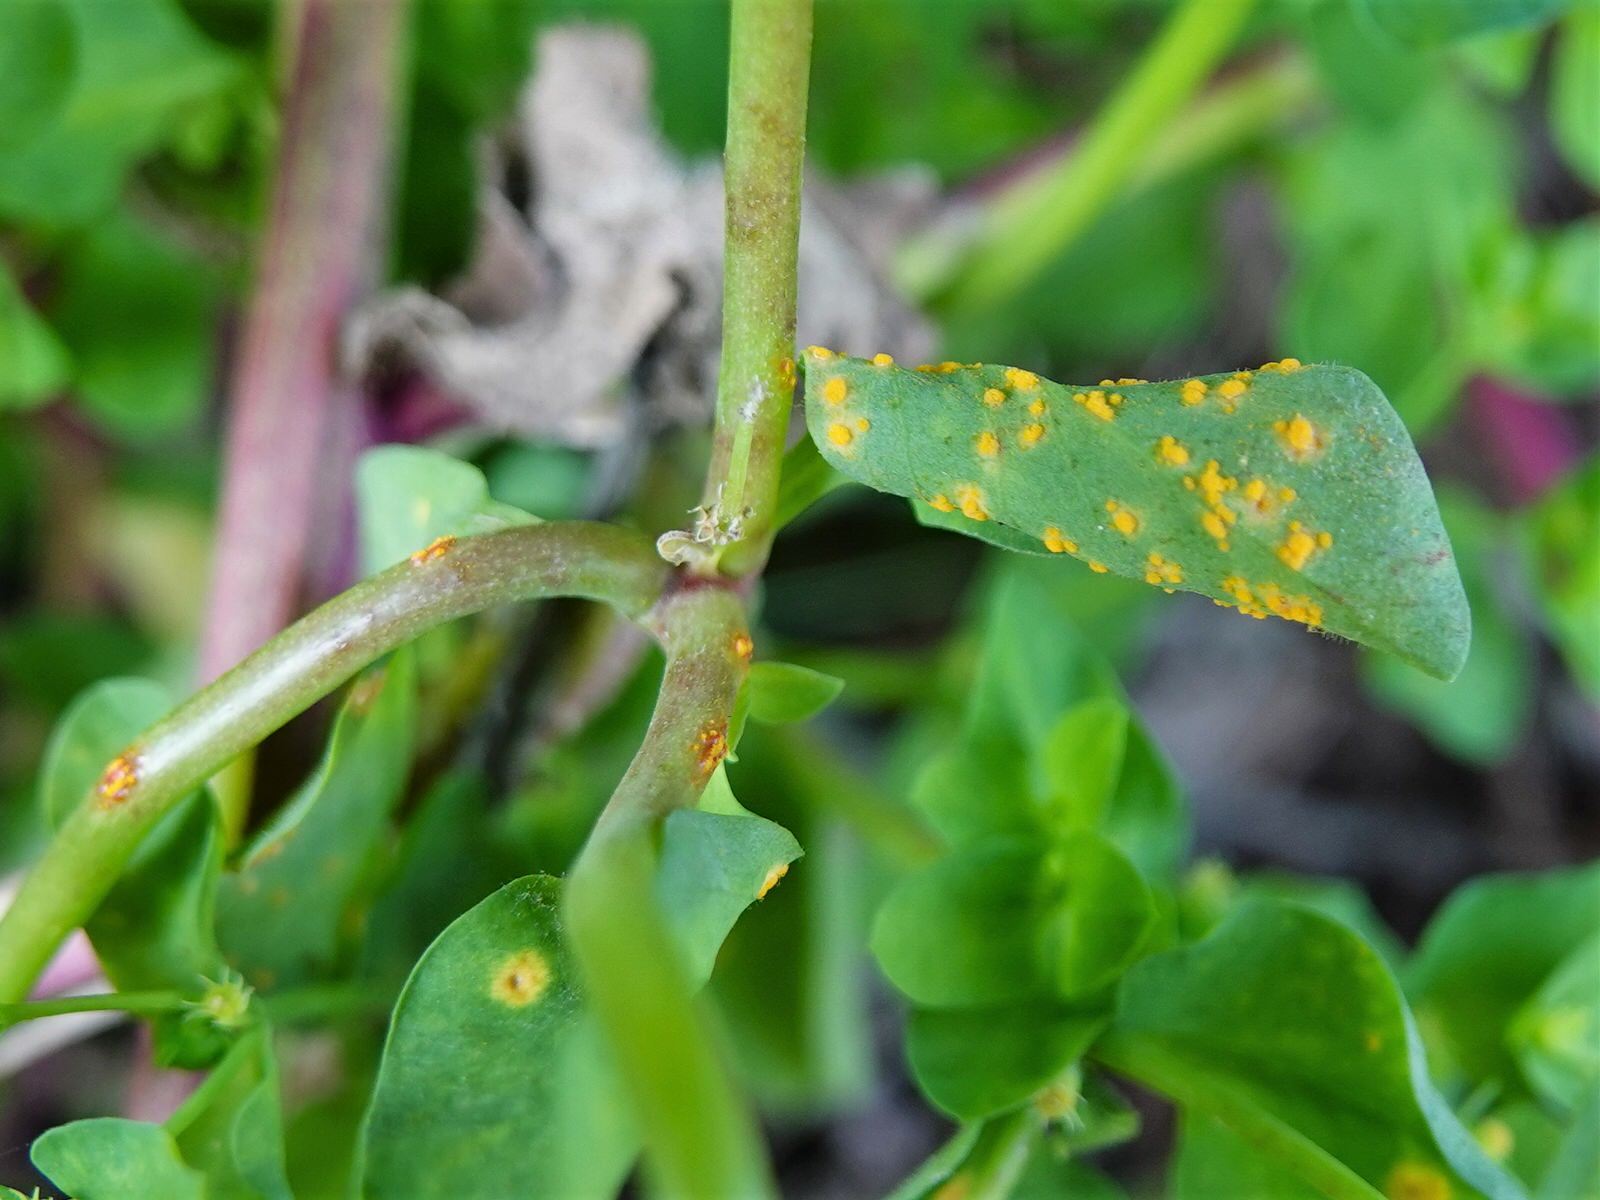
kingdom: Fungi
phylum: Basidiomycota
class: Pucciniomycetes
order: Pucciniales
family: Melampsoraceae
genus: Melampsora
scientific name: Melampsora euphorbiae
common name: Spurge rust
